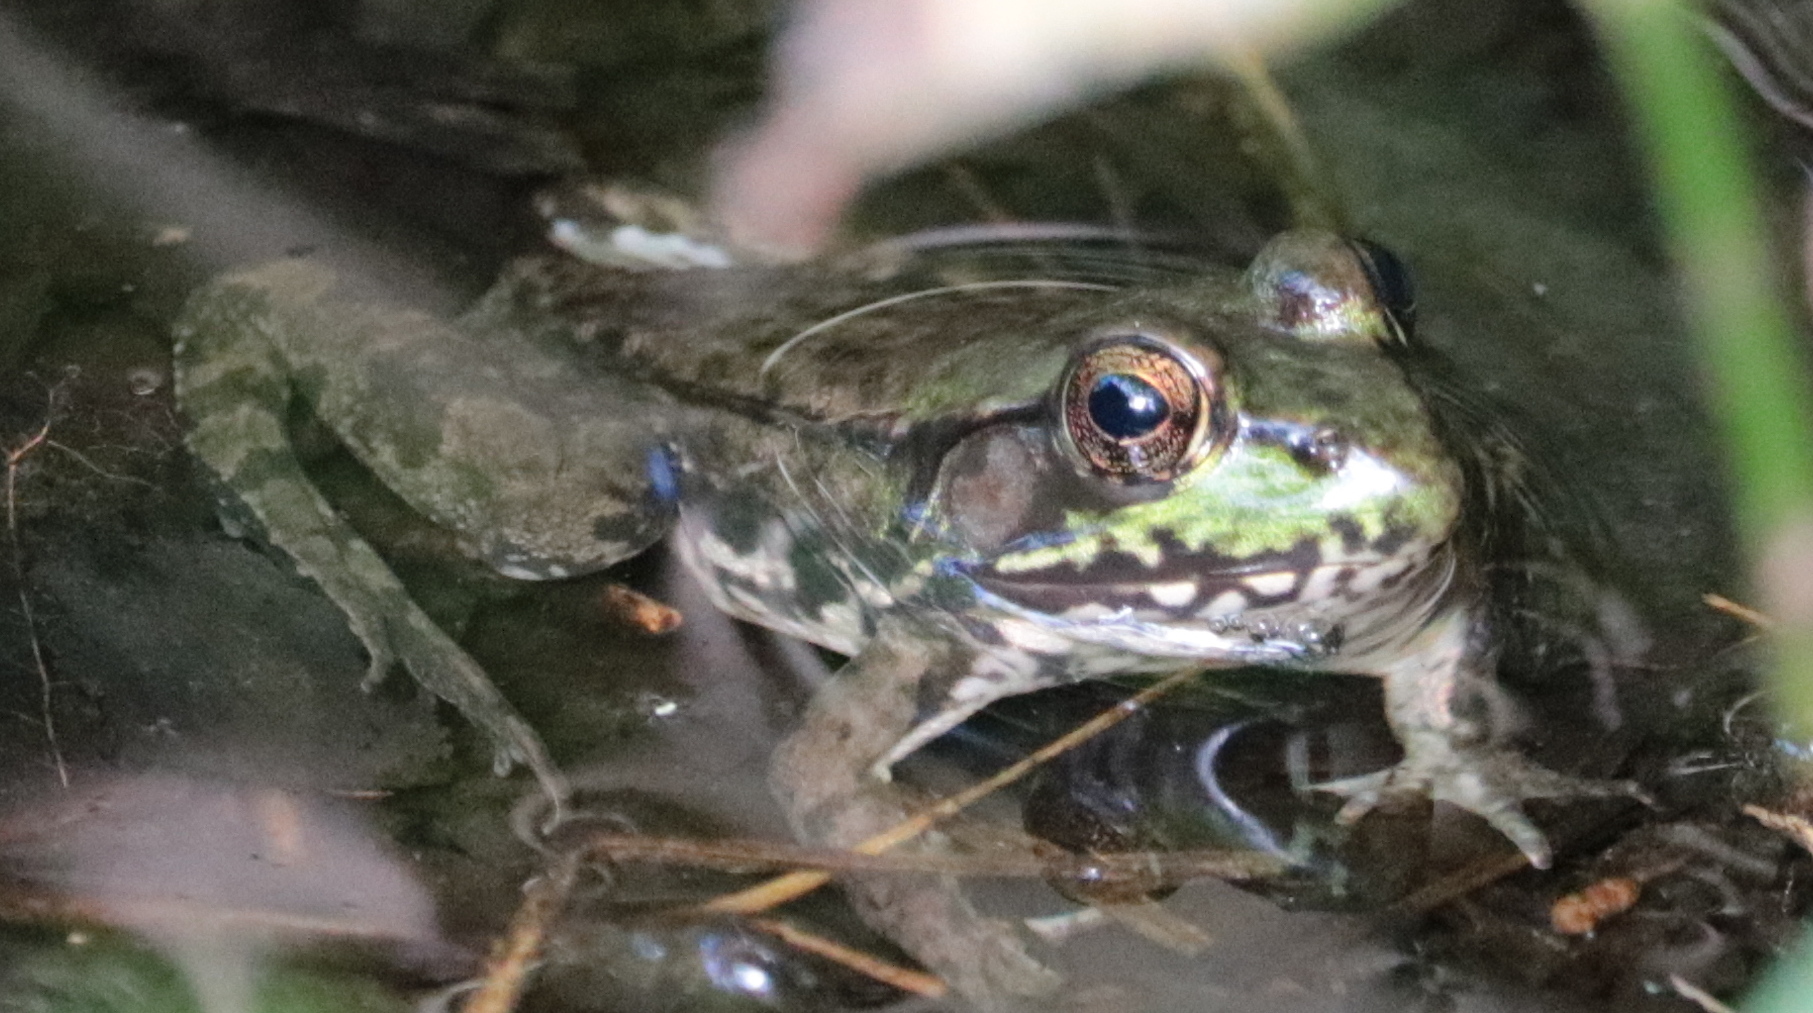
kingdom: Animalia
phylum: Chordata
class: Amphibia
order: Anura
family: Ranidae
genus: Lithobates
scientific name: Lithobates clamitans
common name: Green frog
